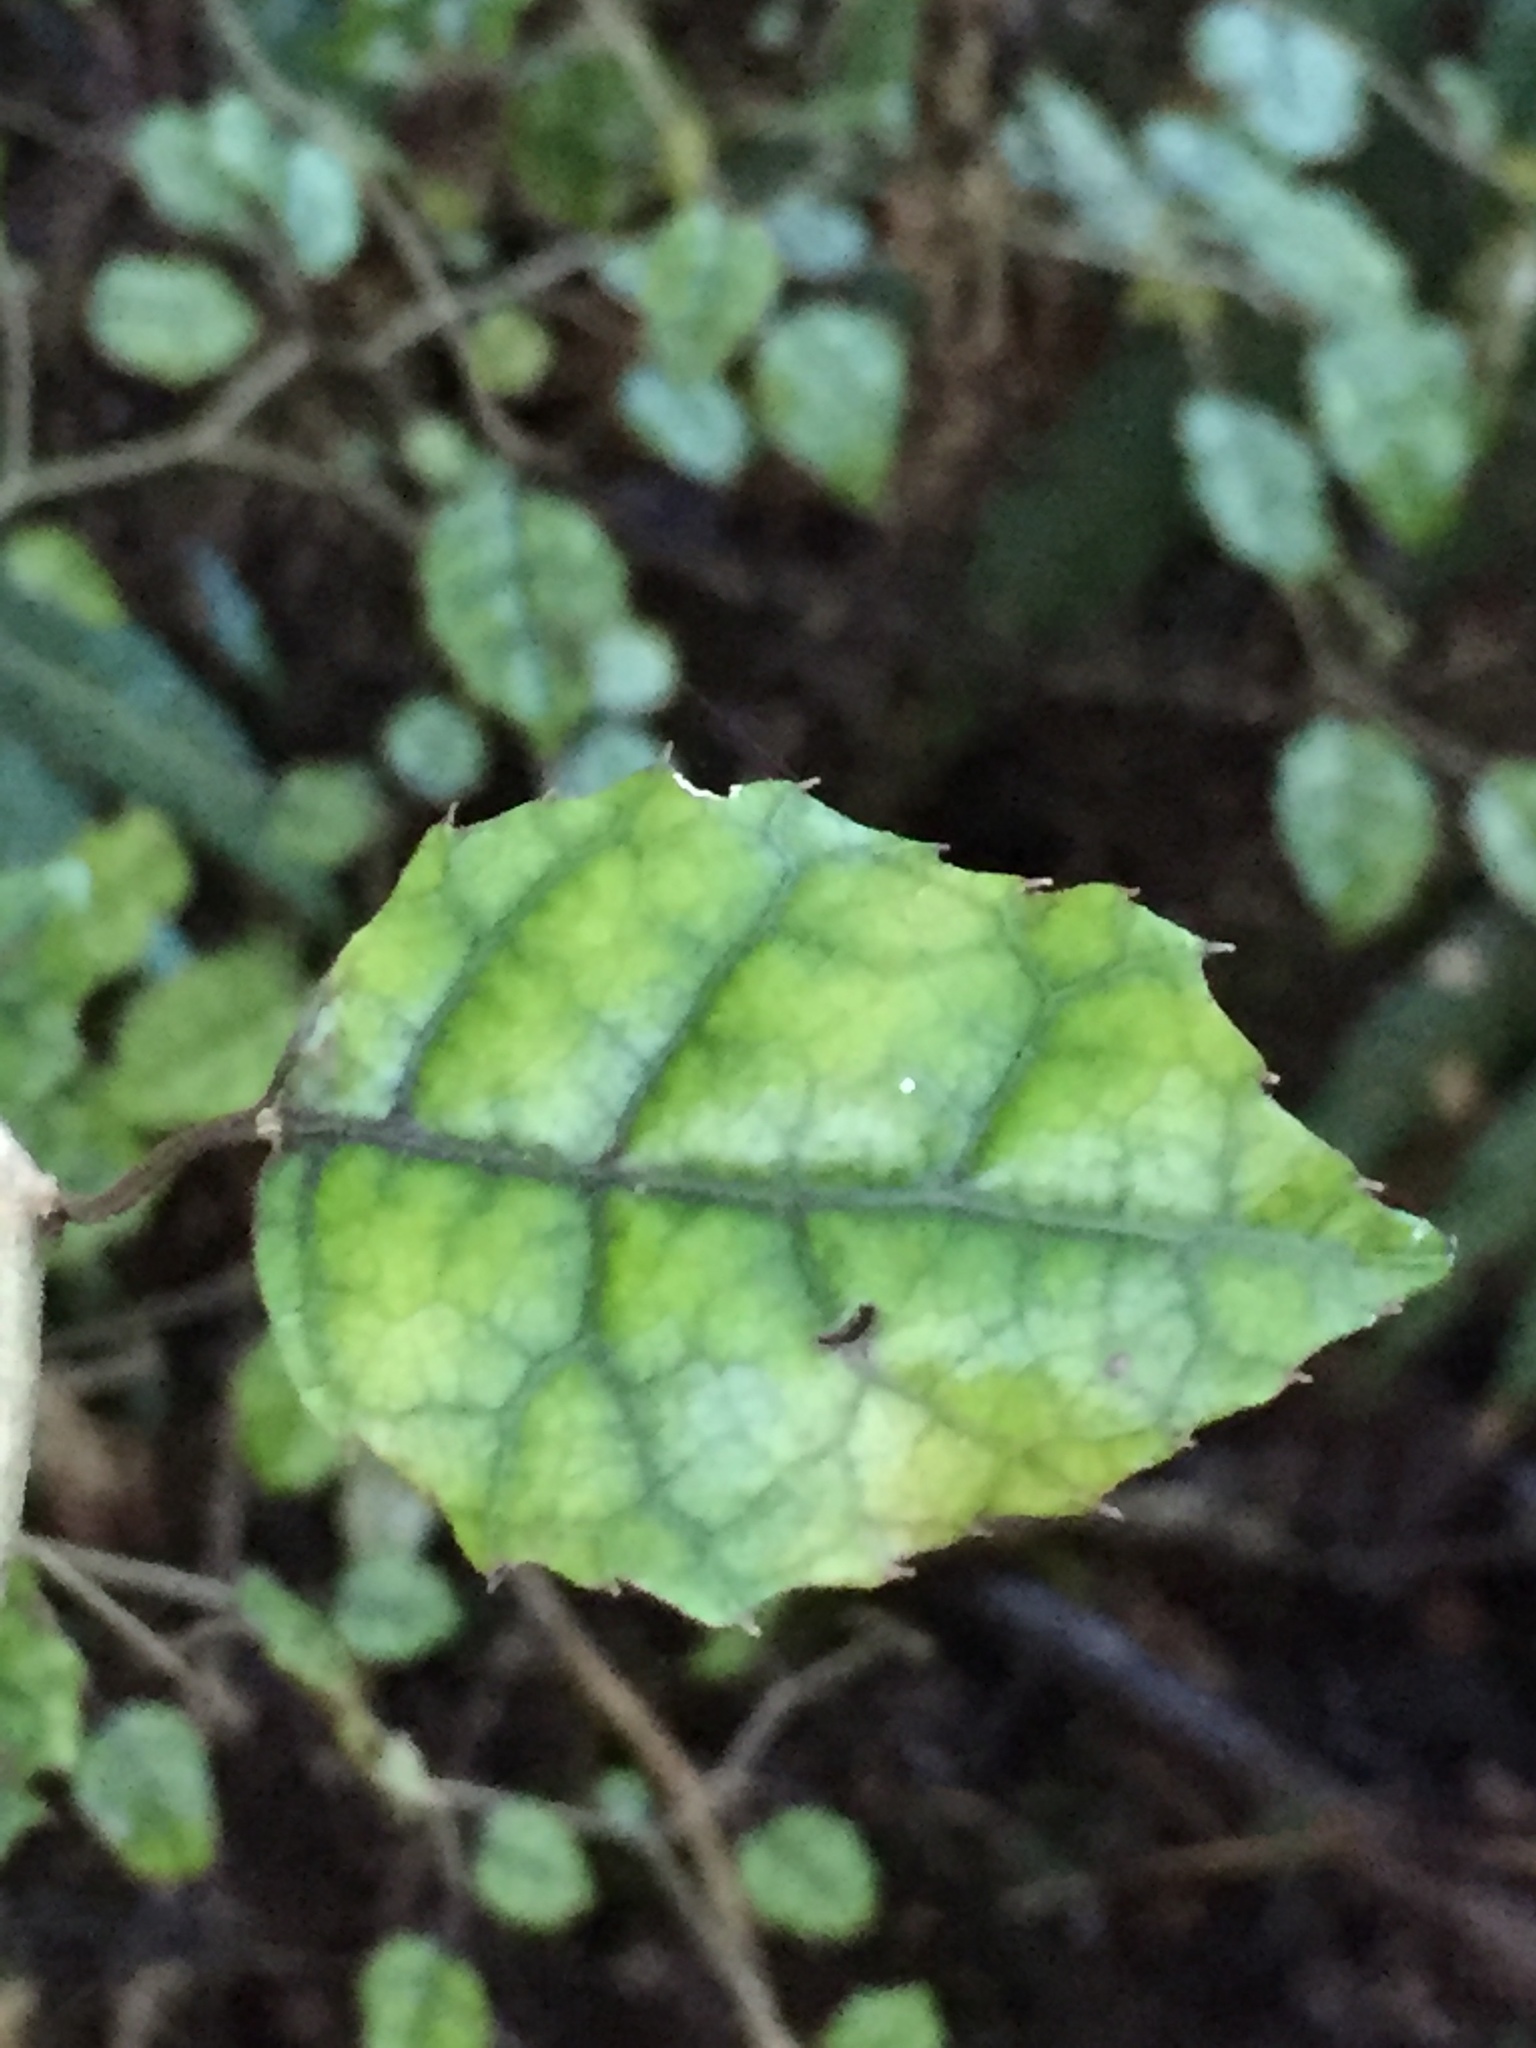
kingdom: Plantae
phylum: Tracheophyta
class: Magnoliopsida
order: Asterales
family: Rousseaceae
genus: Carpodetus
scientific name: Carpodetus serratus
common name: White mapau
